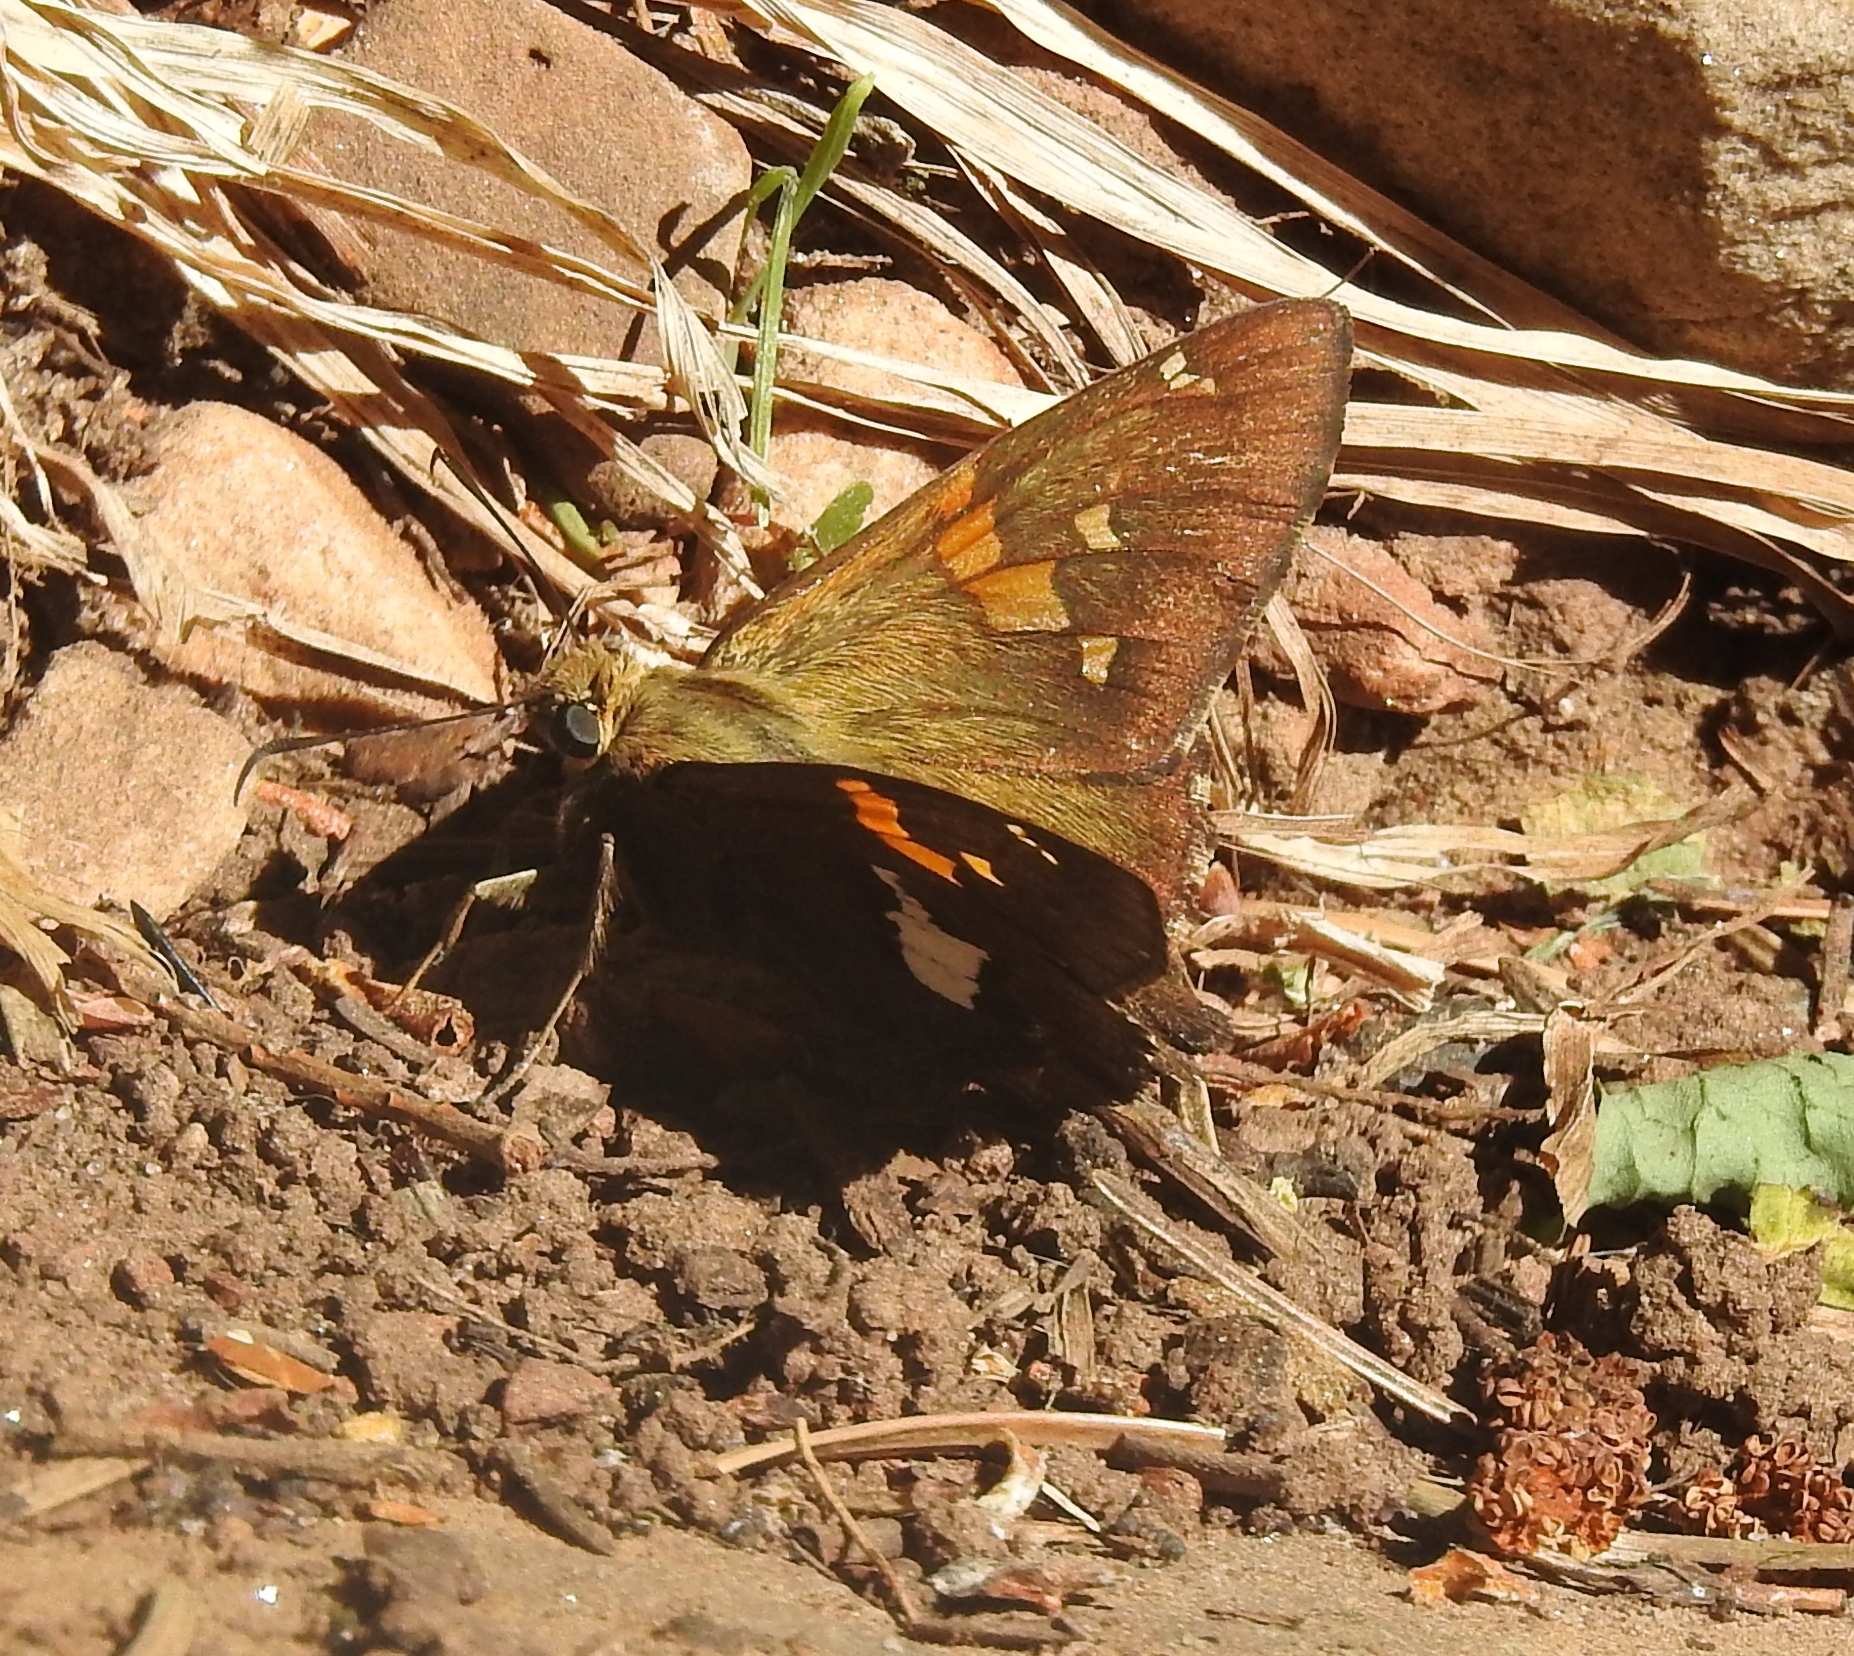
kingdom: Animalia
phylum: Arthropoda
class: Insecta
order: Lepidoptera
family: Hesperiidae
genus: Epargyreus
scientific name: Epargyreus clarus
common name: Silver-spotted skipper
